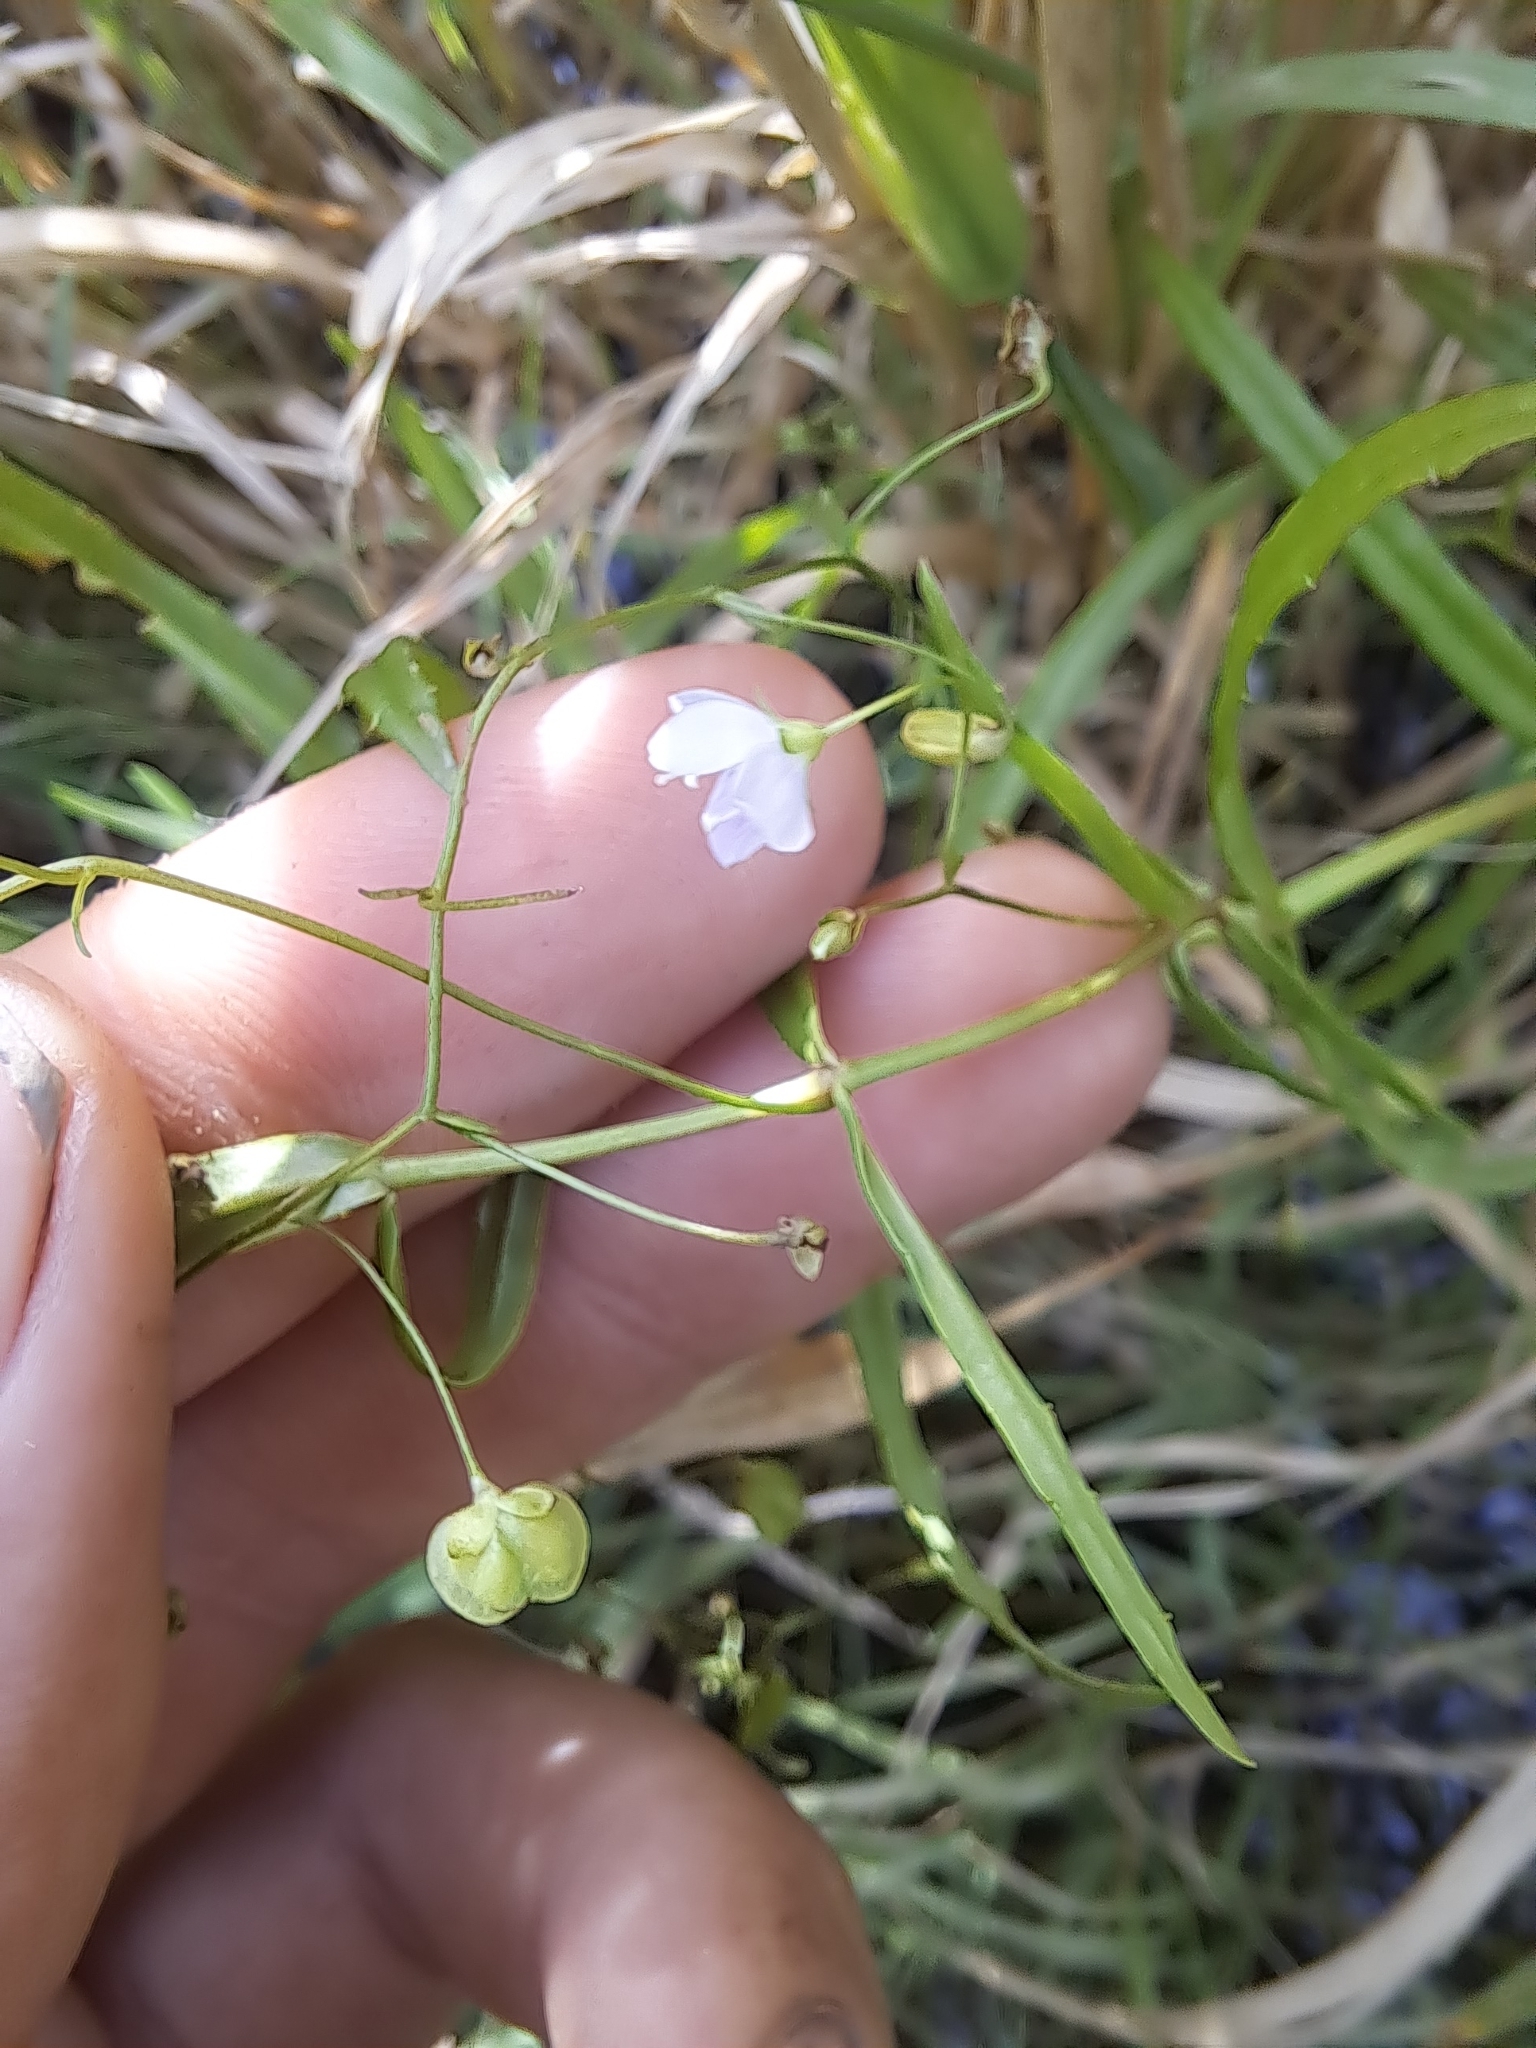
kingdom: Plantae
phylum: Tracheophyta
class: Magnoliopsida
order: Lamiales
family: Plantaginaceae
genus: Veronica
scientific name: Veronica scutellata
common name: Marsh speedwell
